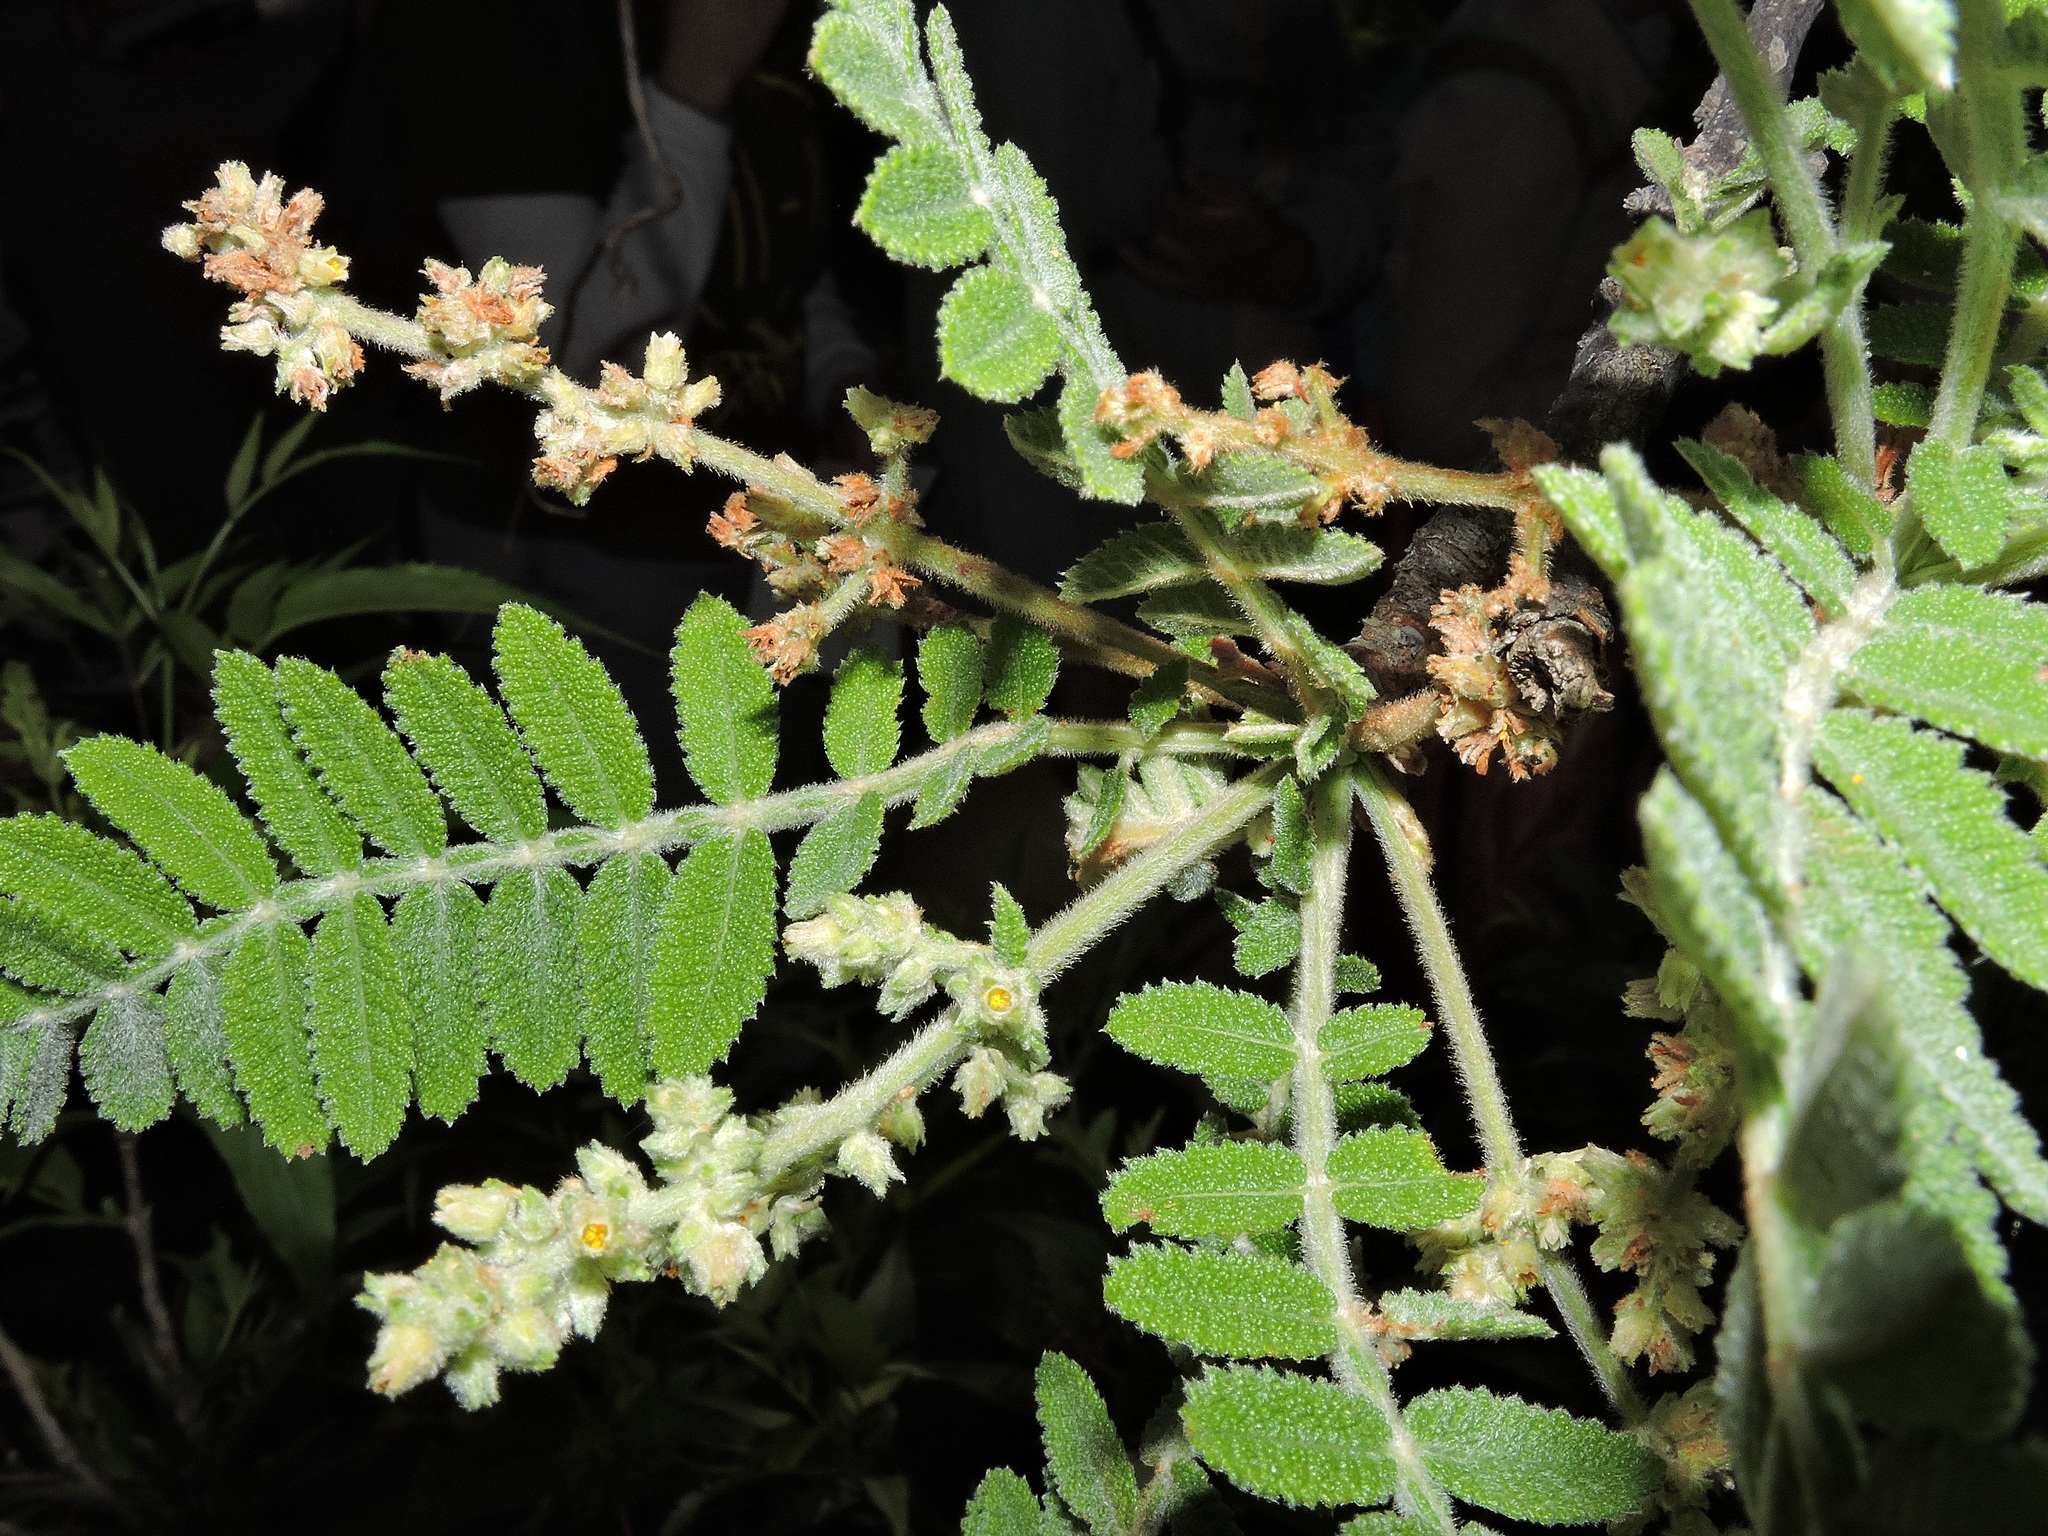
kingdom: Plantae
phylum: Tracheophyta
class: Magnoliopsida
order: Sapindales
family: Burseraceae
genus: Bursera
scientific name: Bursera copallifera
